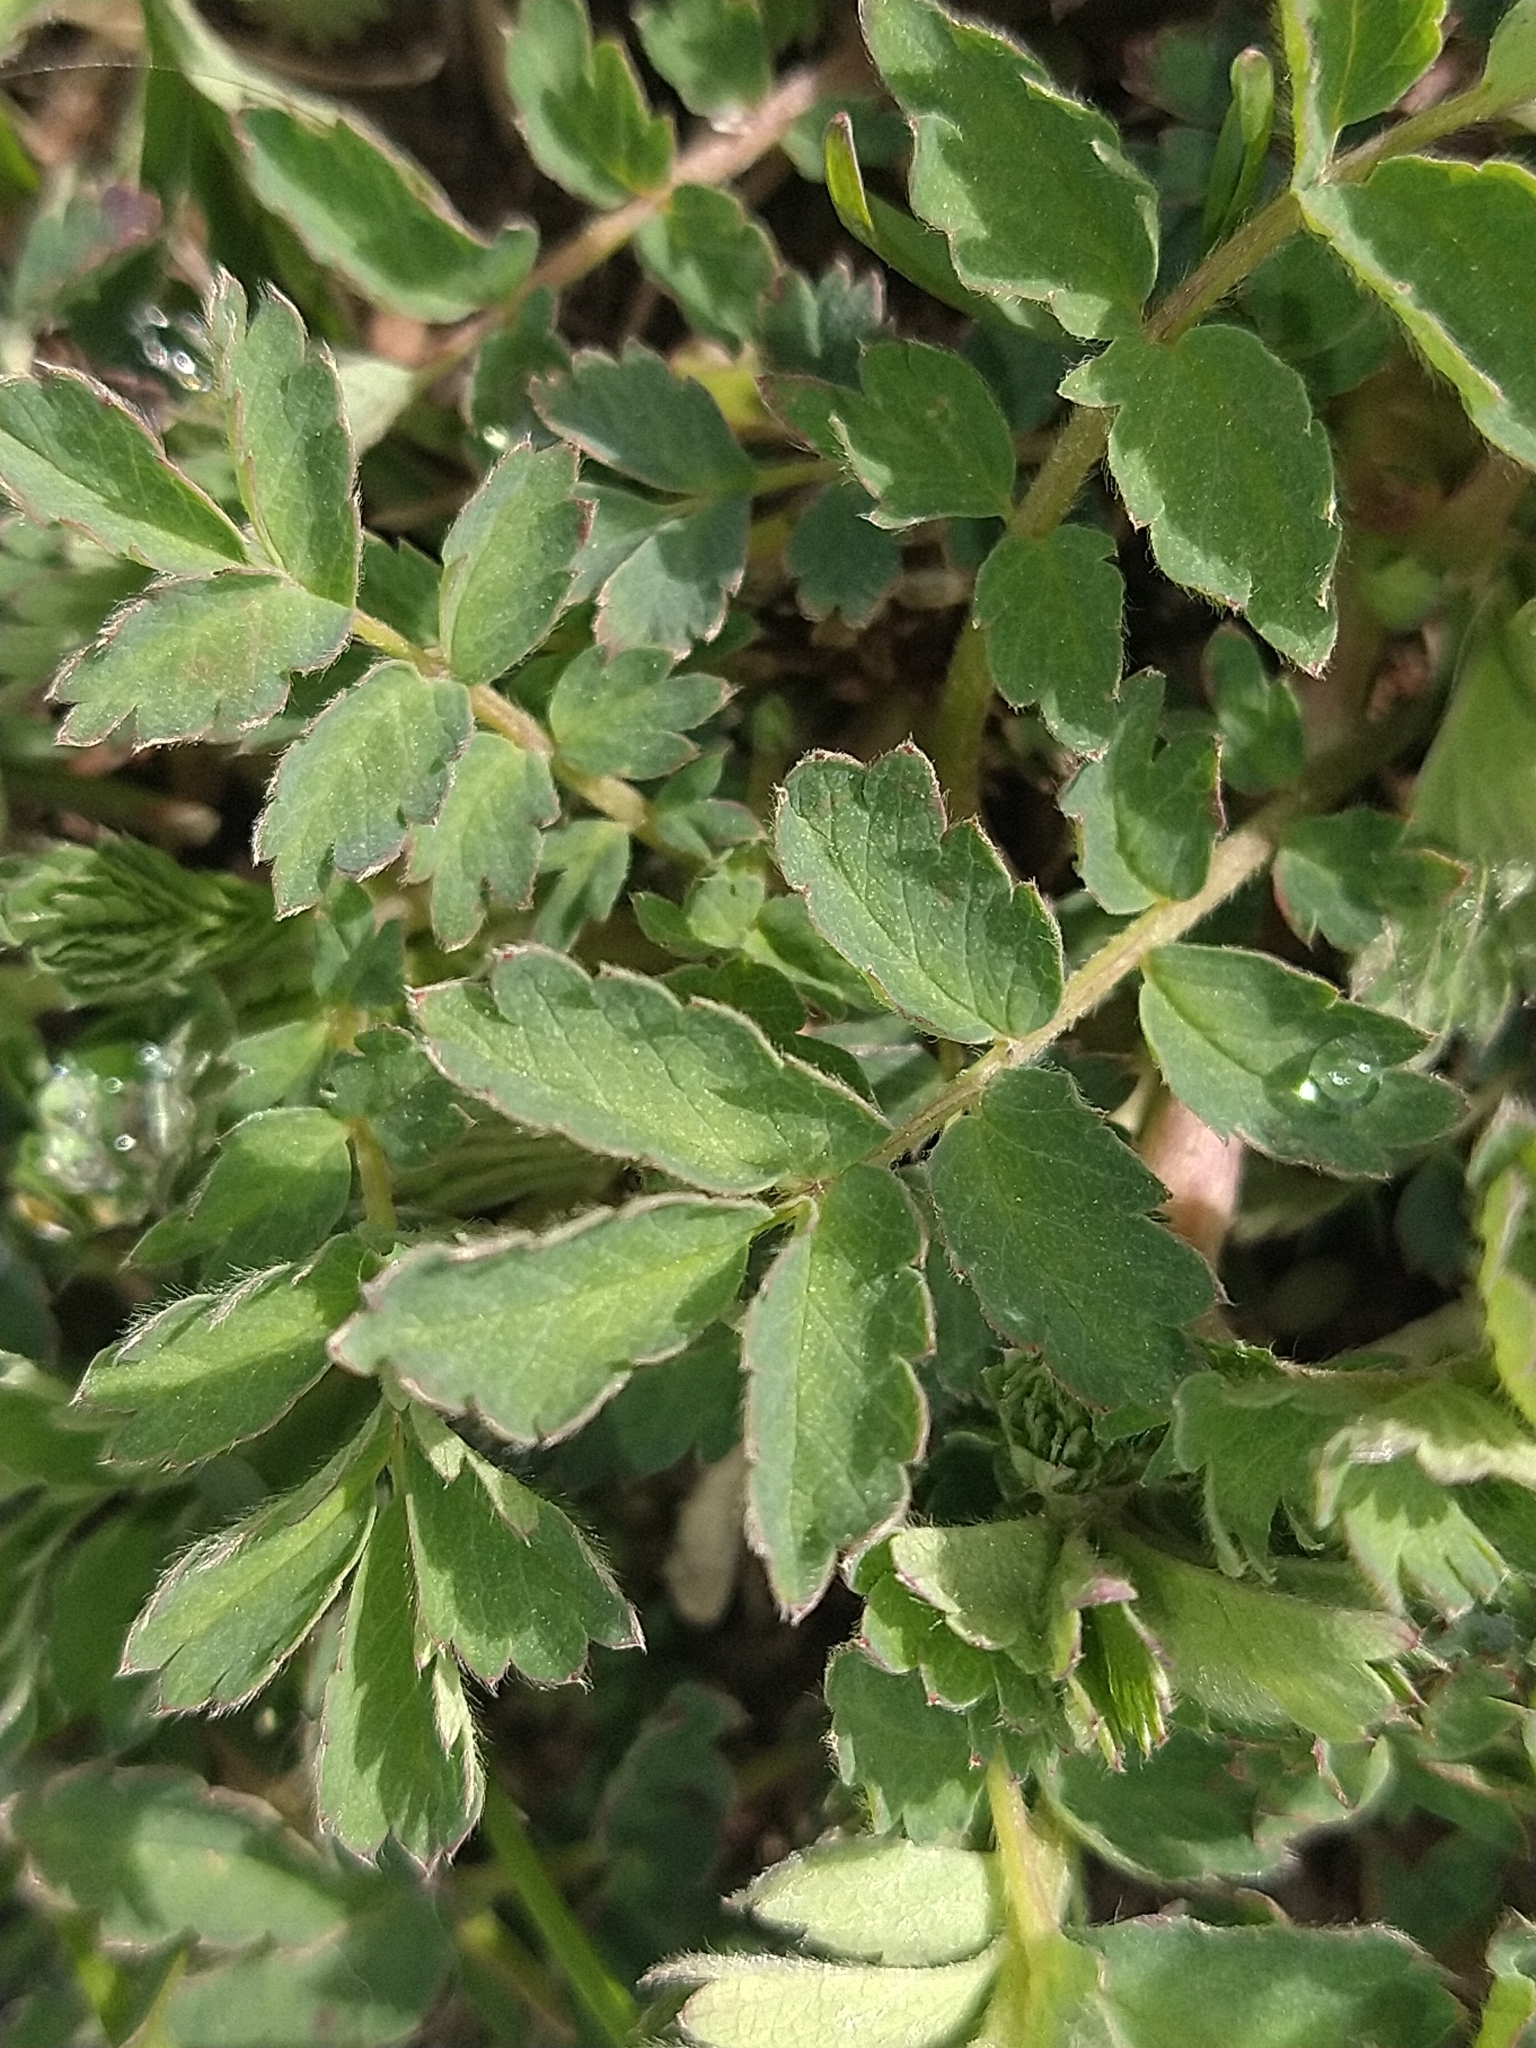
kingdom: Plantae
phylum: Tracheophyta
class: Magnoliopsida
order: Rosales
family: Rosaceae
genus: Acaena
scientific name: Acaena magellanica
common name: New zealand burr
